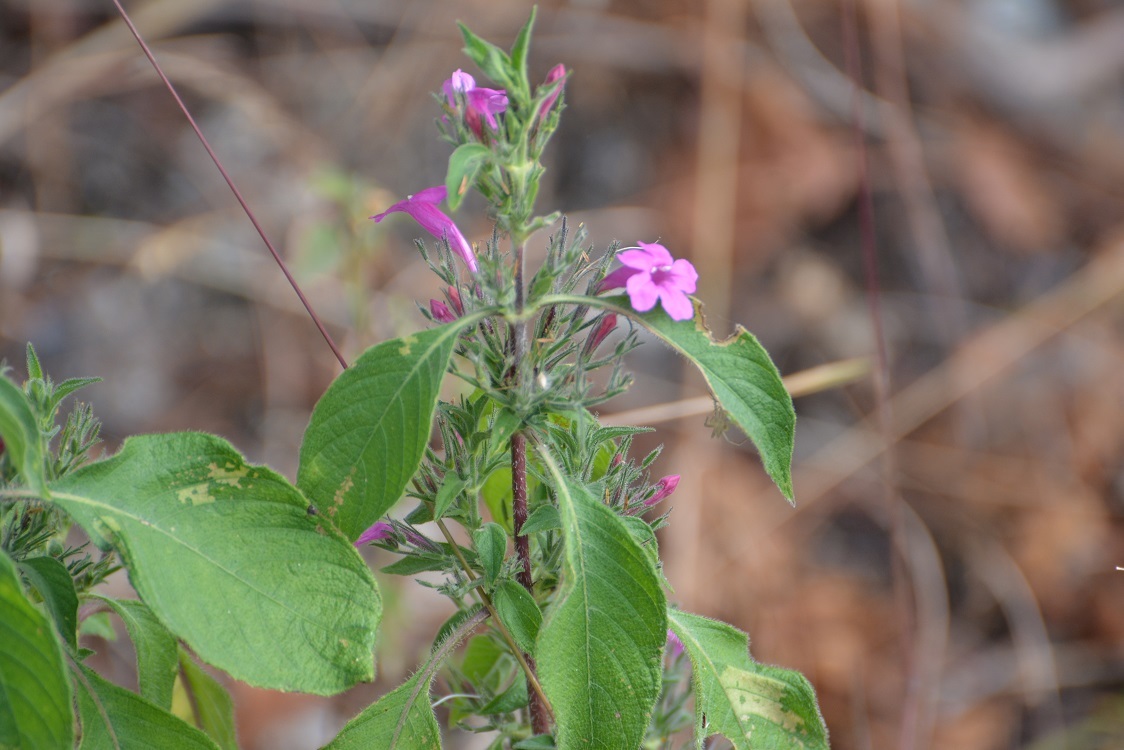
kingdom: Plantae
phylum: Tracheophyta
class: Magnoliopsida
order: Lamiales
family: Acanthaceae
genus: Ruellia
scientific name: Ruellia inundata
